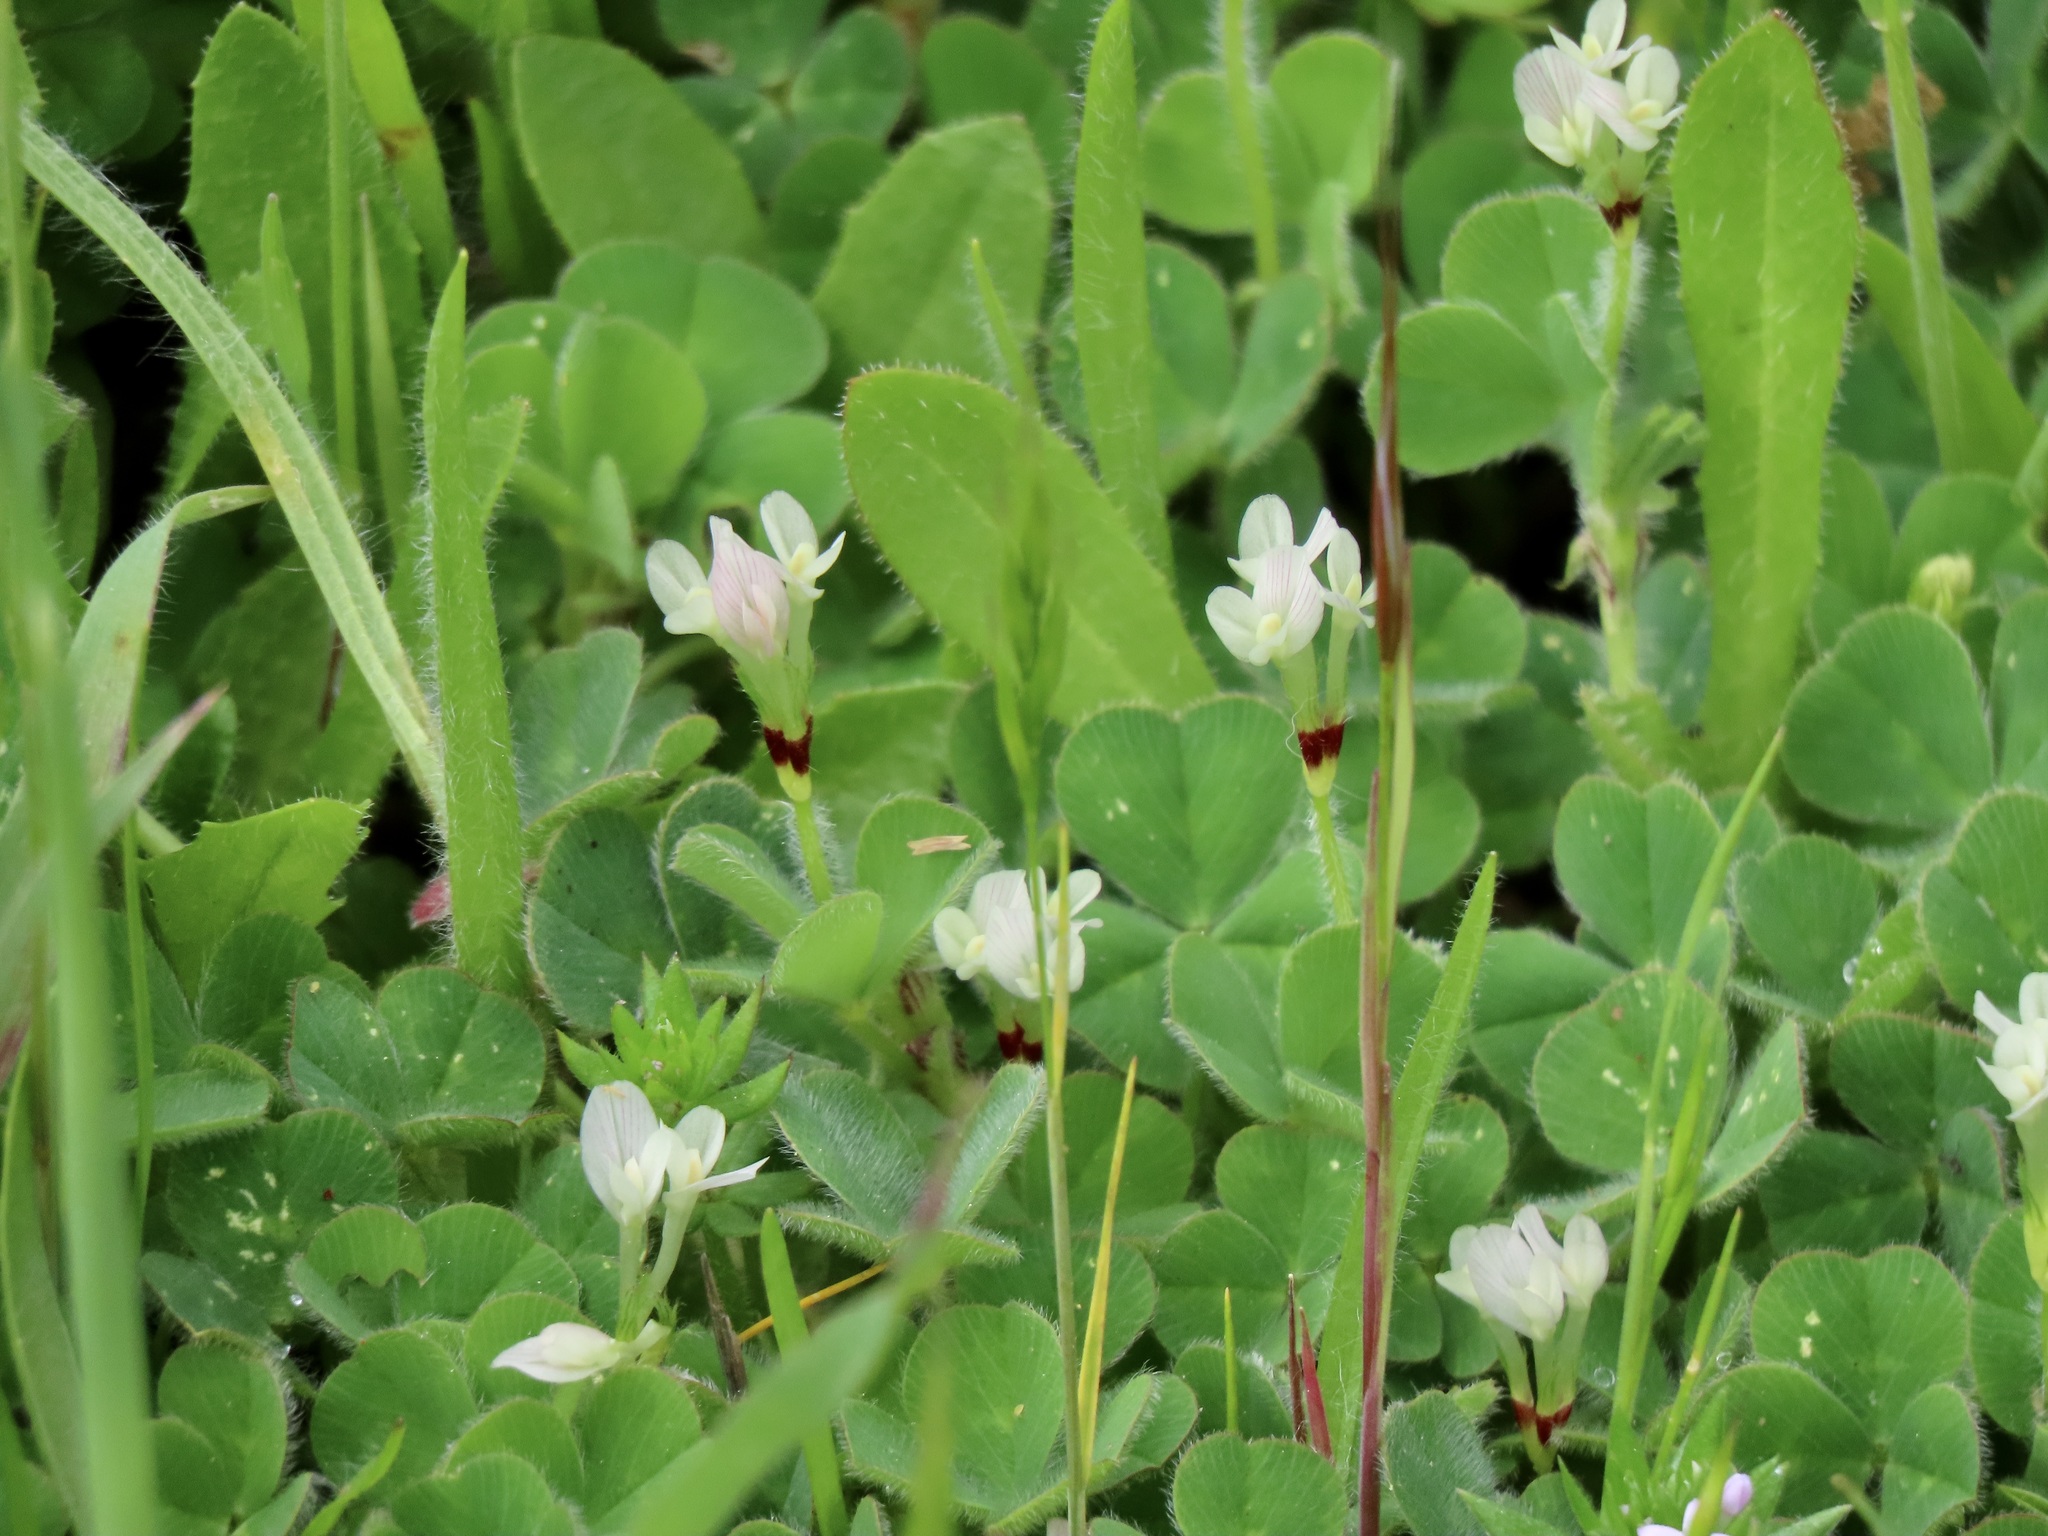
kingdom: Plantae
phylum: Tracheophyta
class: Magnoliopsida
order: Fabales
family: Fabaceae
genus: Trifolium
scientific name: Trifolium subterraneum
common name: Subterranean clover
